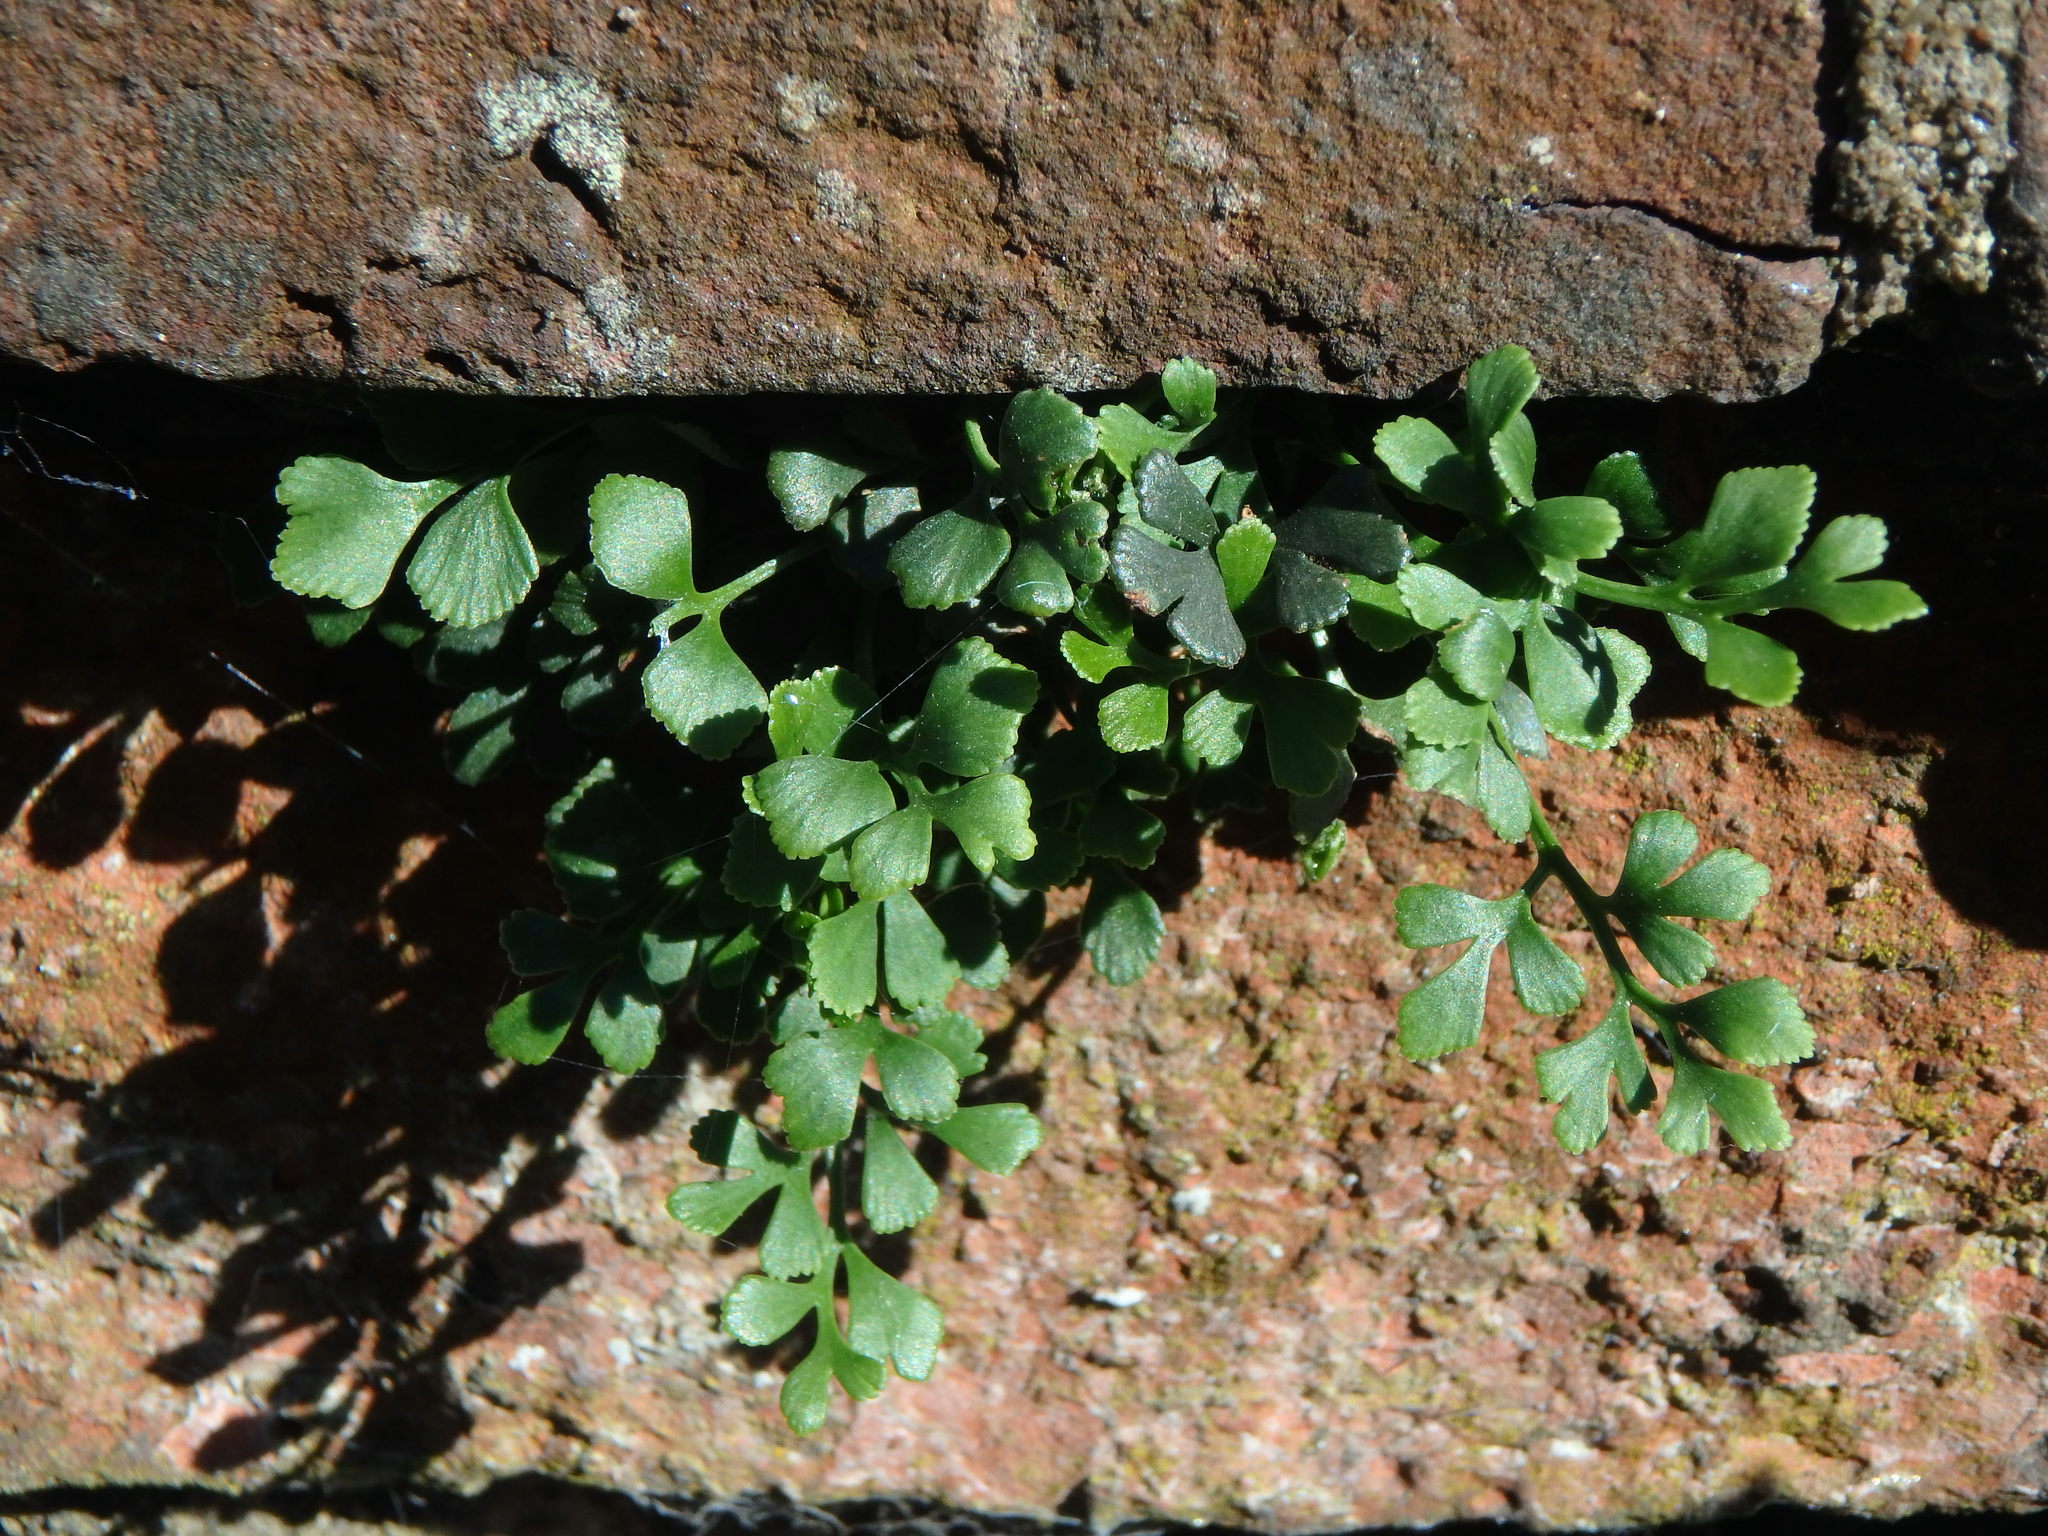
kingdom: Plantae
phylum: Tracheophyta
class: Polypodiopsida
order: Polypodiales
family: Aspleniaceae
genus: Asplenium
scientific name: Asplenium ruta-muraria
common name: Wall-rue
